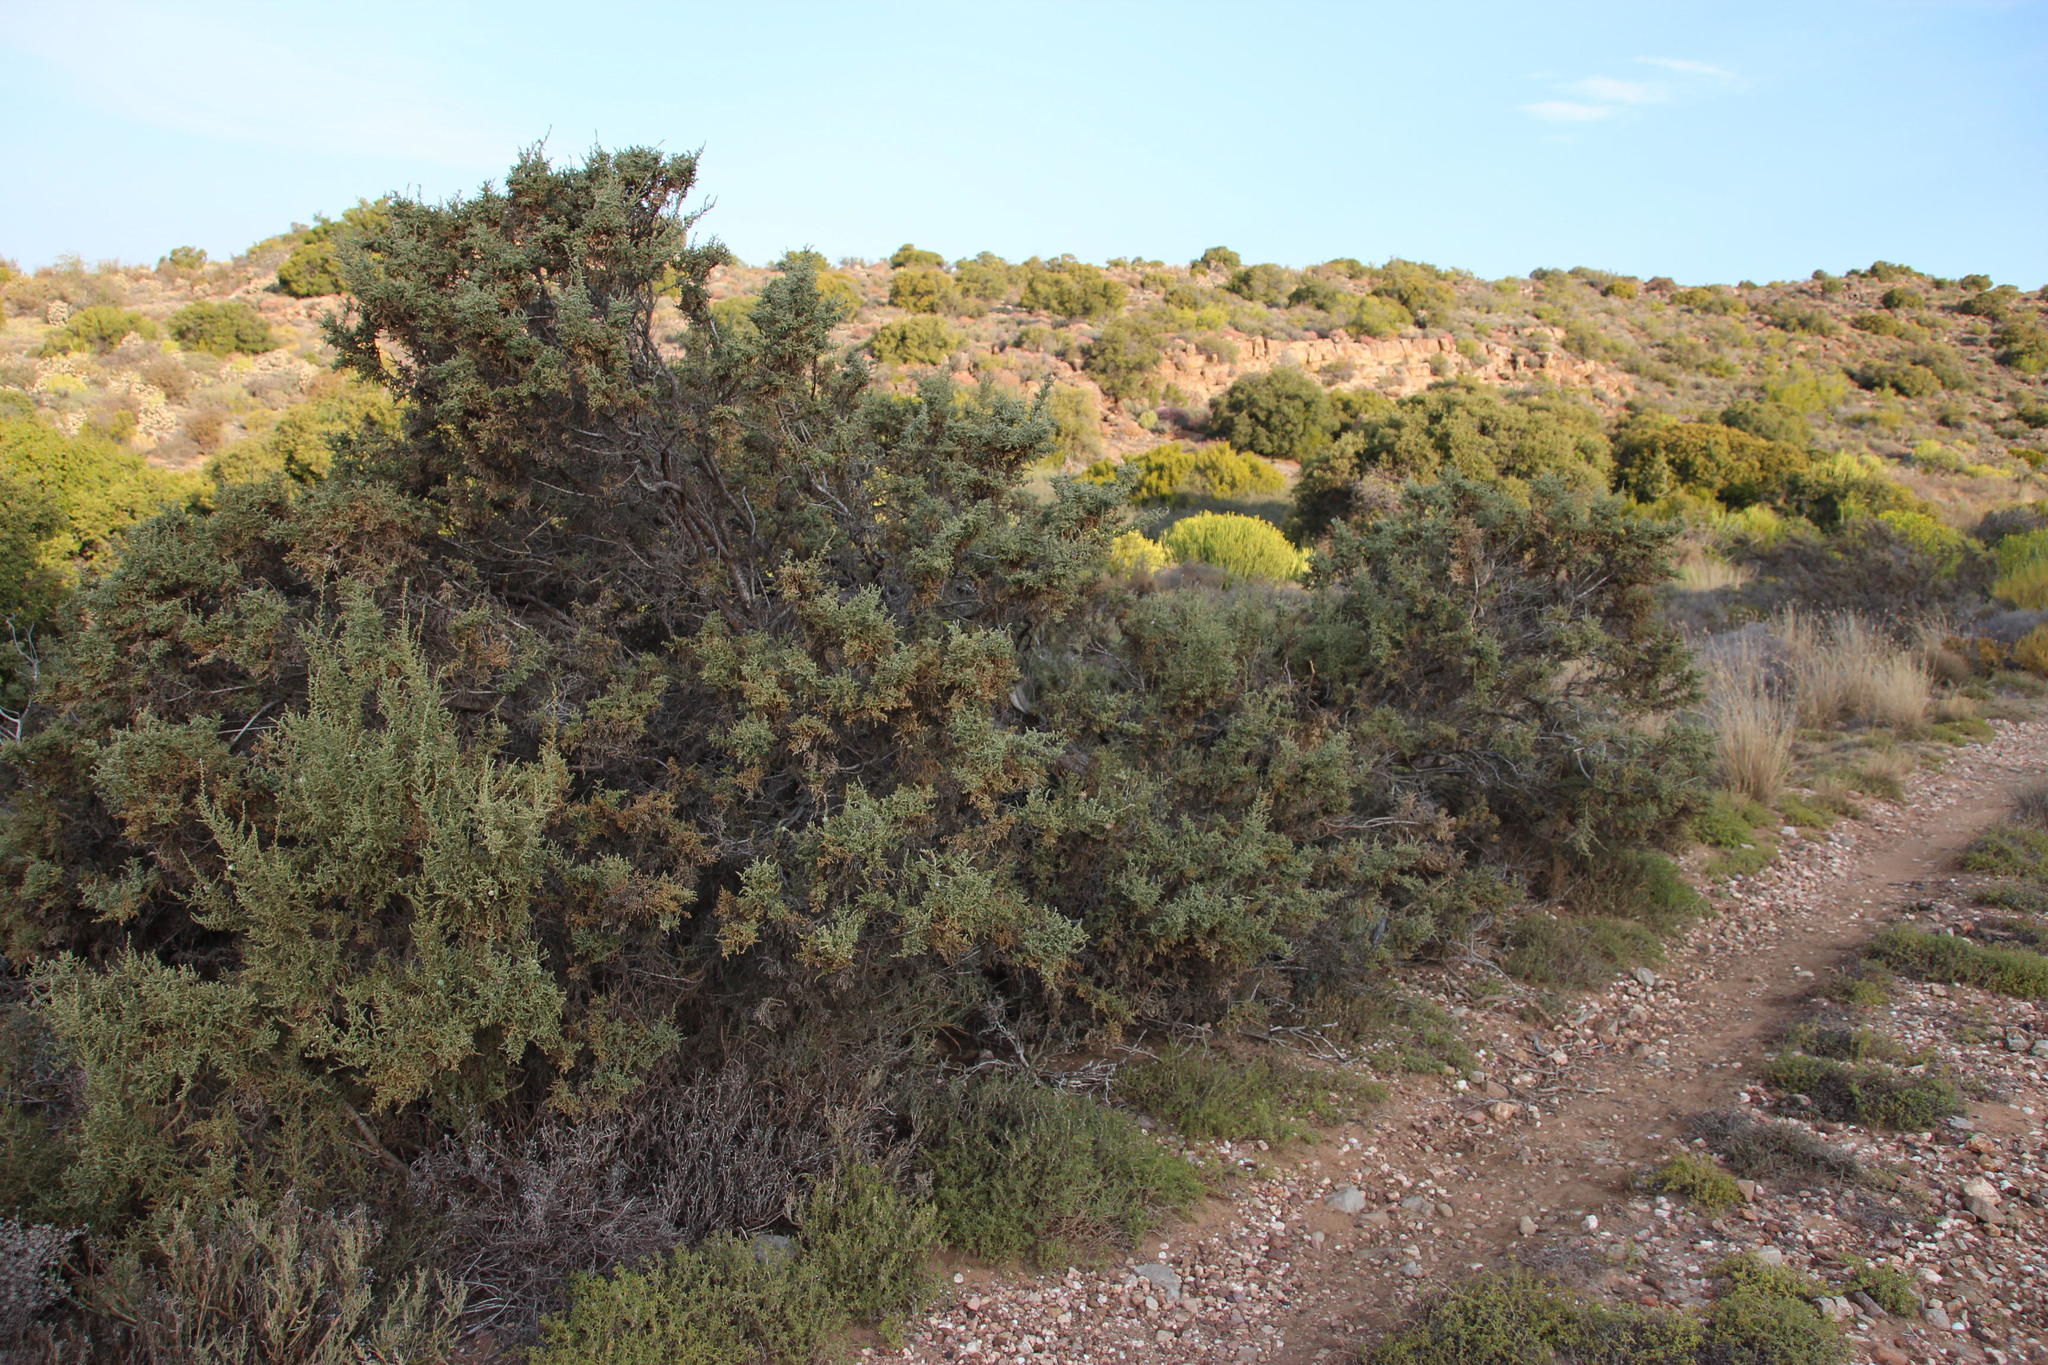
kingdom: Plantae
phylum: Tracheophyta
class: Magnoliopsida
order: Caryophyllales
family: Amaranthaceae
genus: Caroxylon
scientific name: Caroxylon aphyllum
